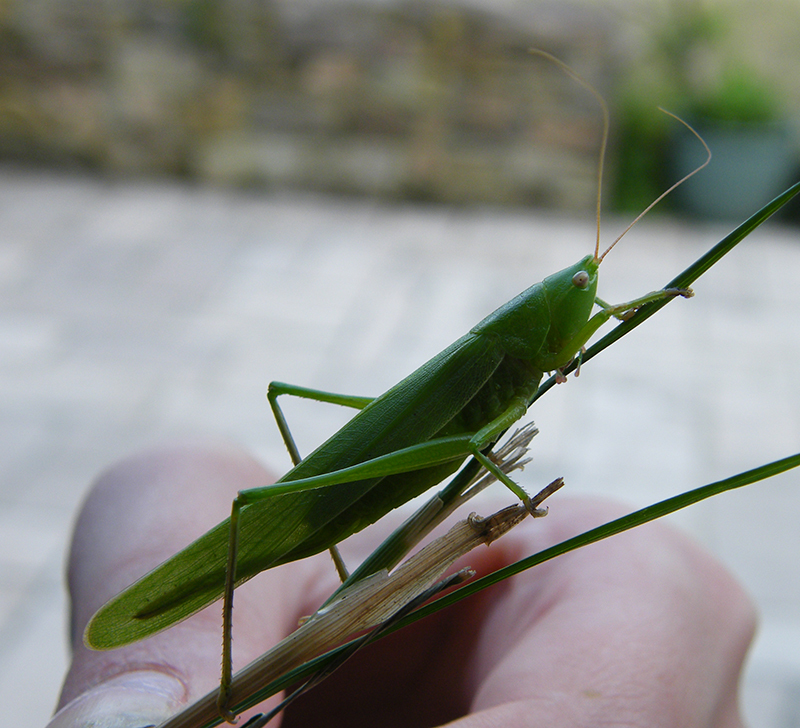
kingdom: Animalia
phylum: Arthropoda
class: Insecta
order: Orthoptera
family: Tettigoniidae
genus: Ruspolia
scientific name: Ruspolia nitidula
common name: Large conehead
